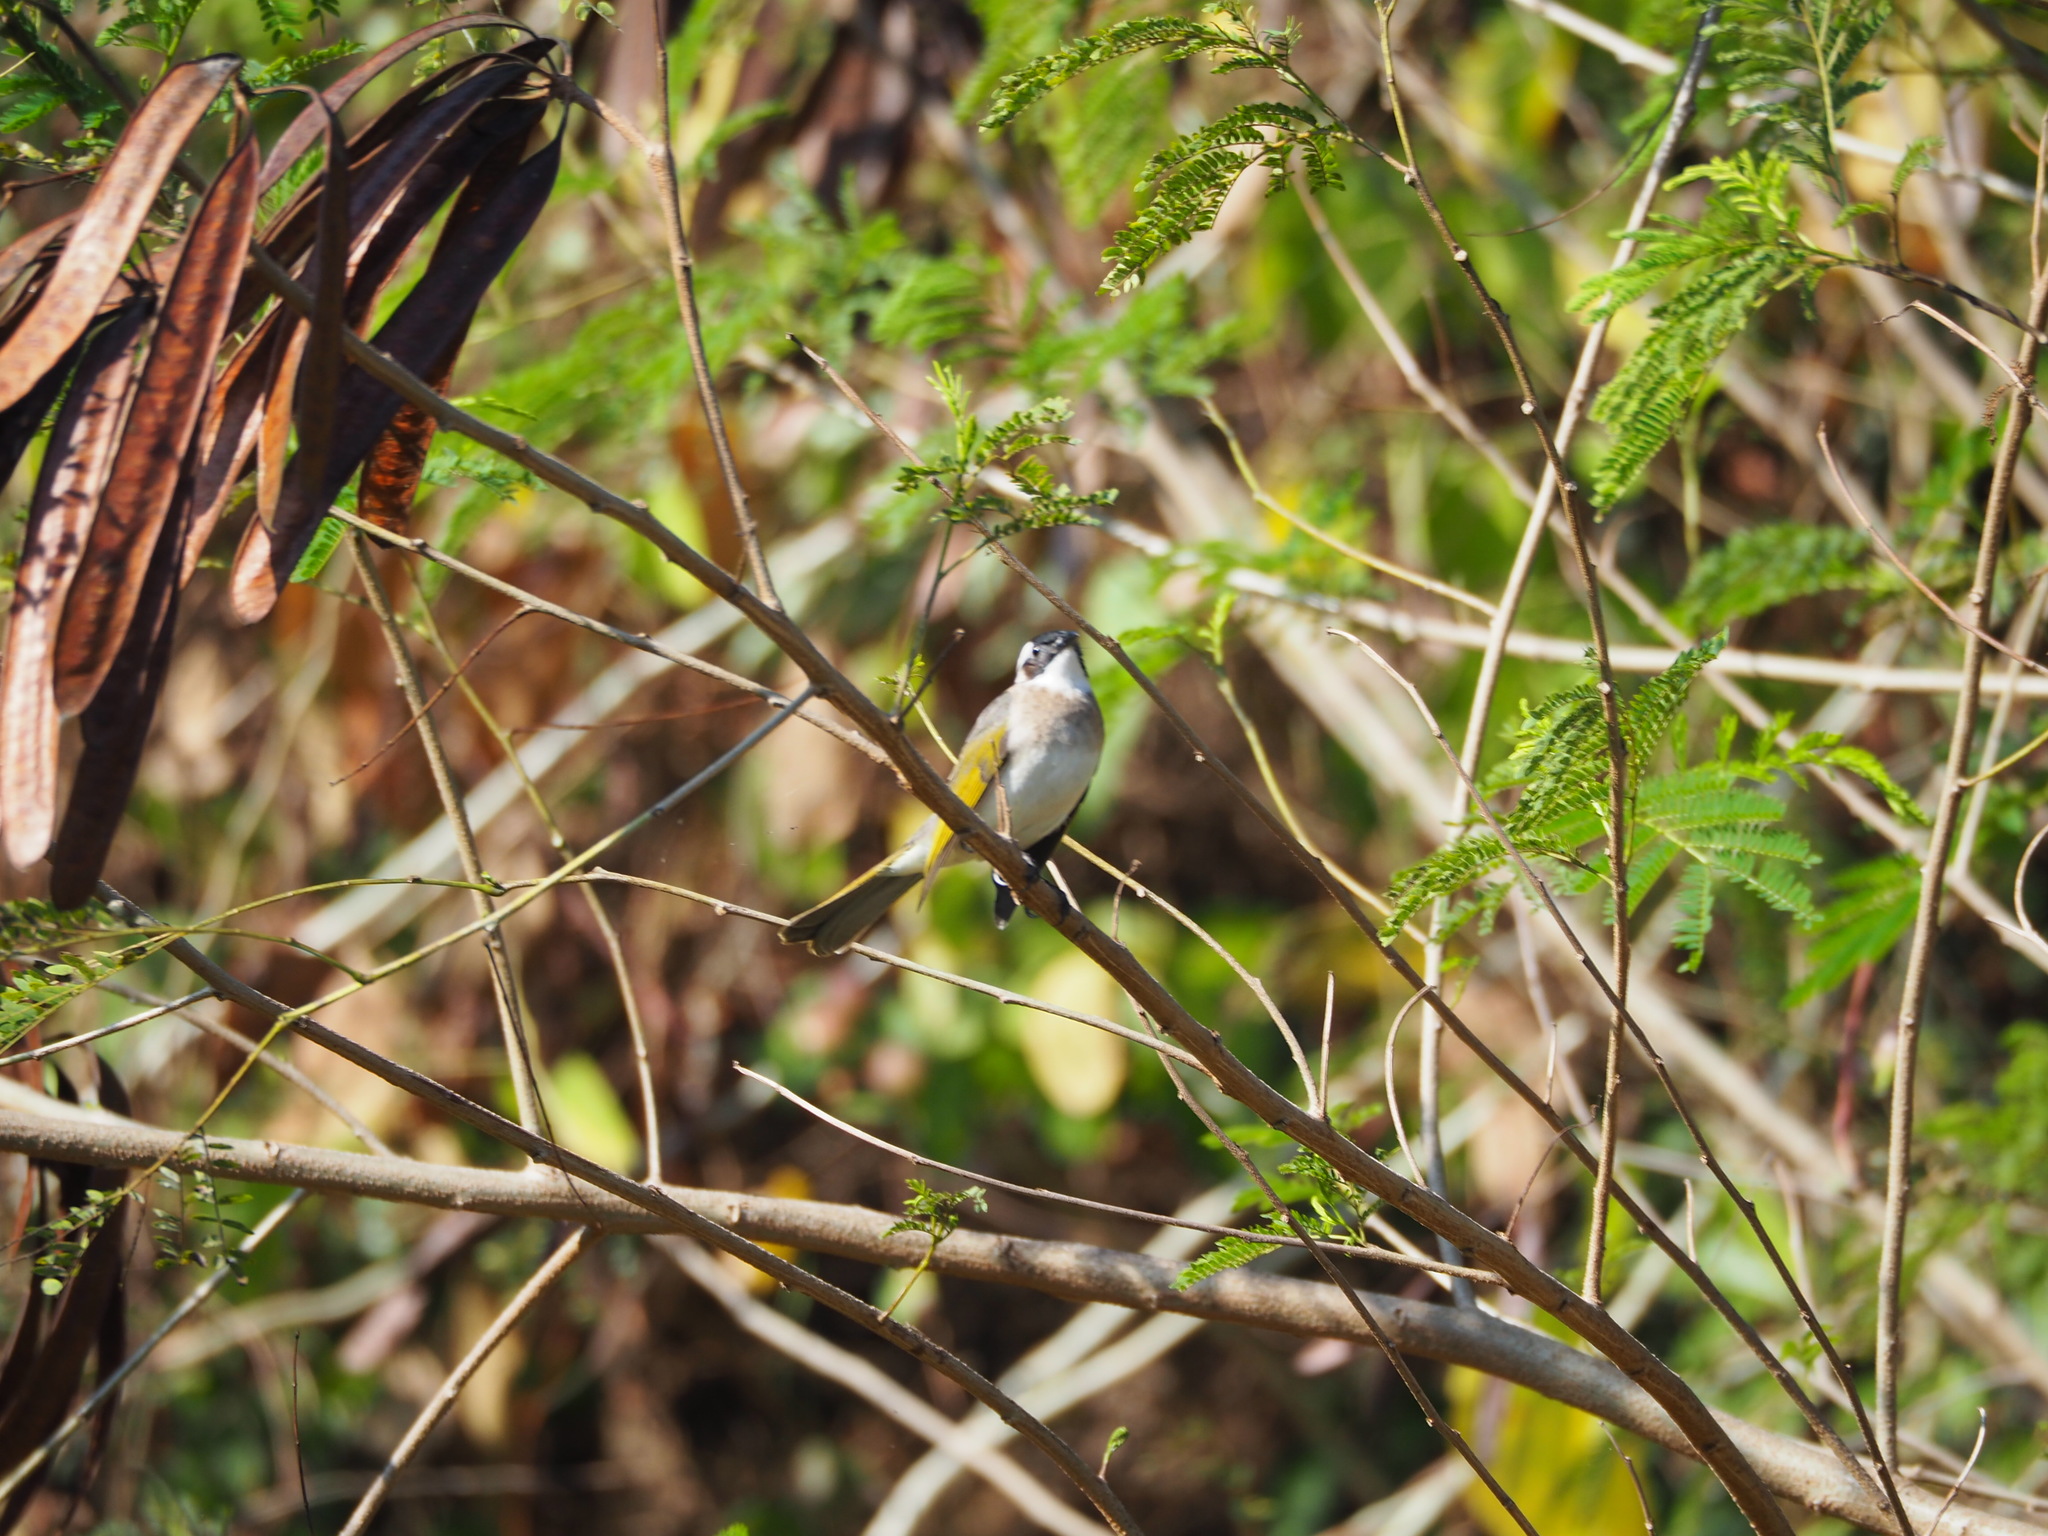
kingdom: Animalia
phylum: Chordata
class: Aves
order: Passeriformes
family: Pycnonotidae
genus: Pycnonotus
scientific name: Pycnonotus sinensis
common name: Light-vented bulbul
